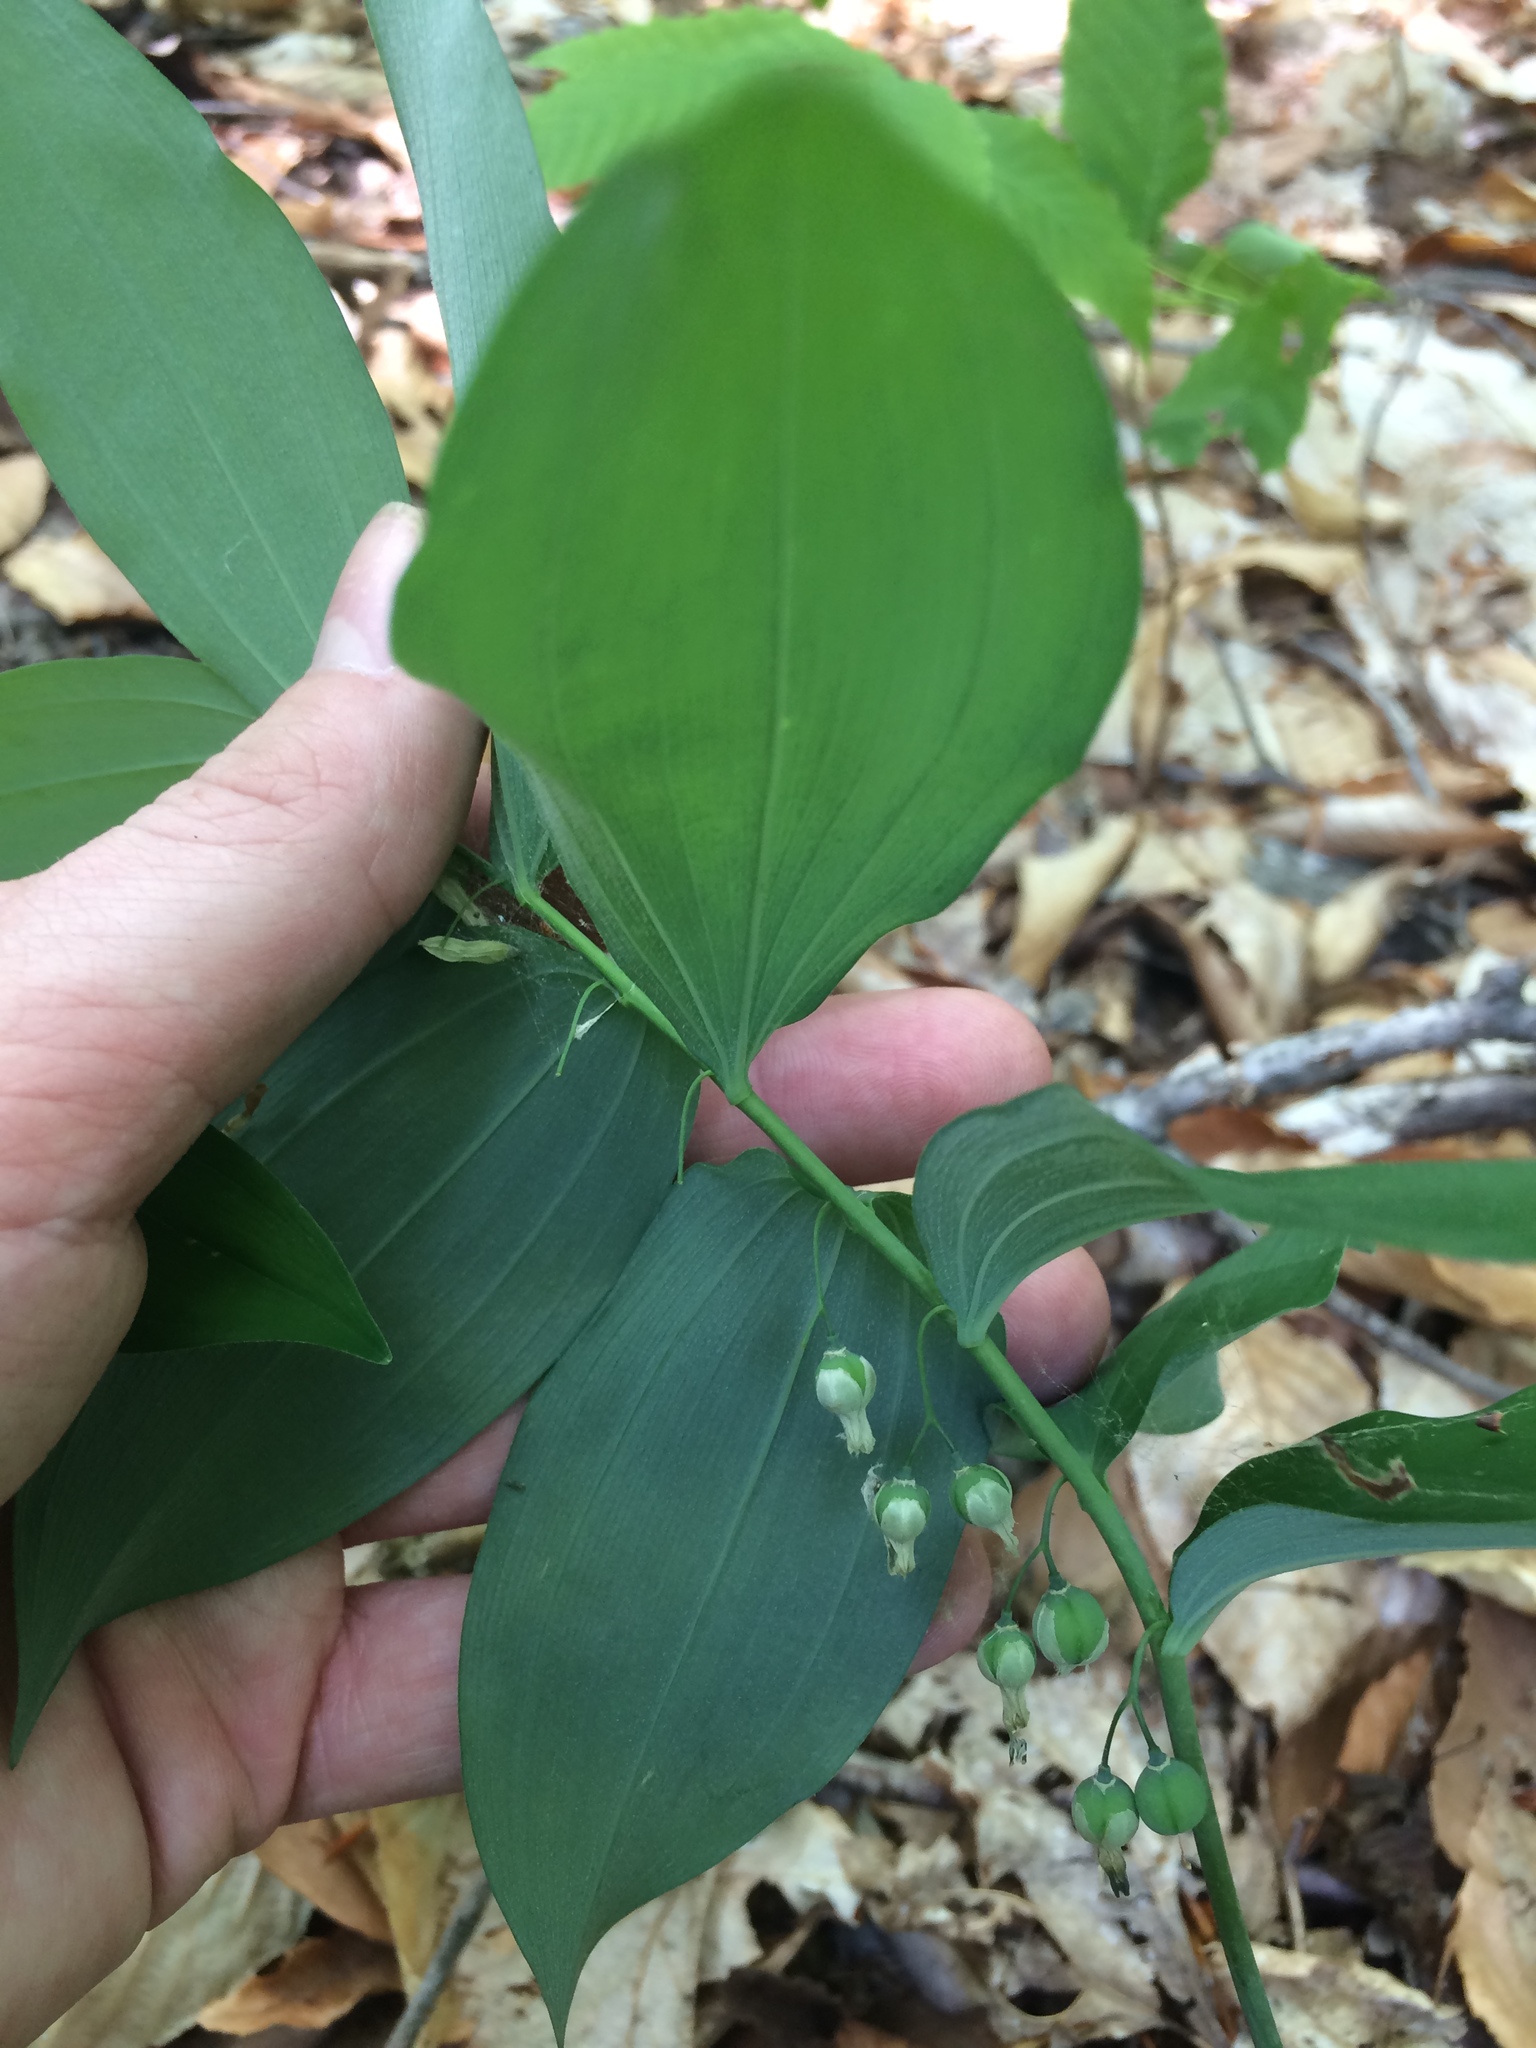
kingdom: Plantae
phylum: Tracheophyta
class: Liliopsida
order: Asparagales
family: Asparagaceae
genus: Polygonatum
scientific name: Polygonatum pubescens
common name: Downy solomon's seal
